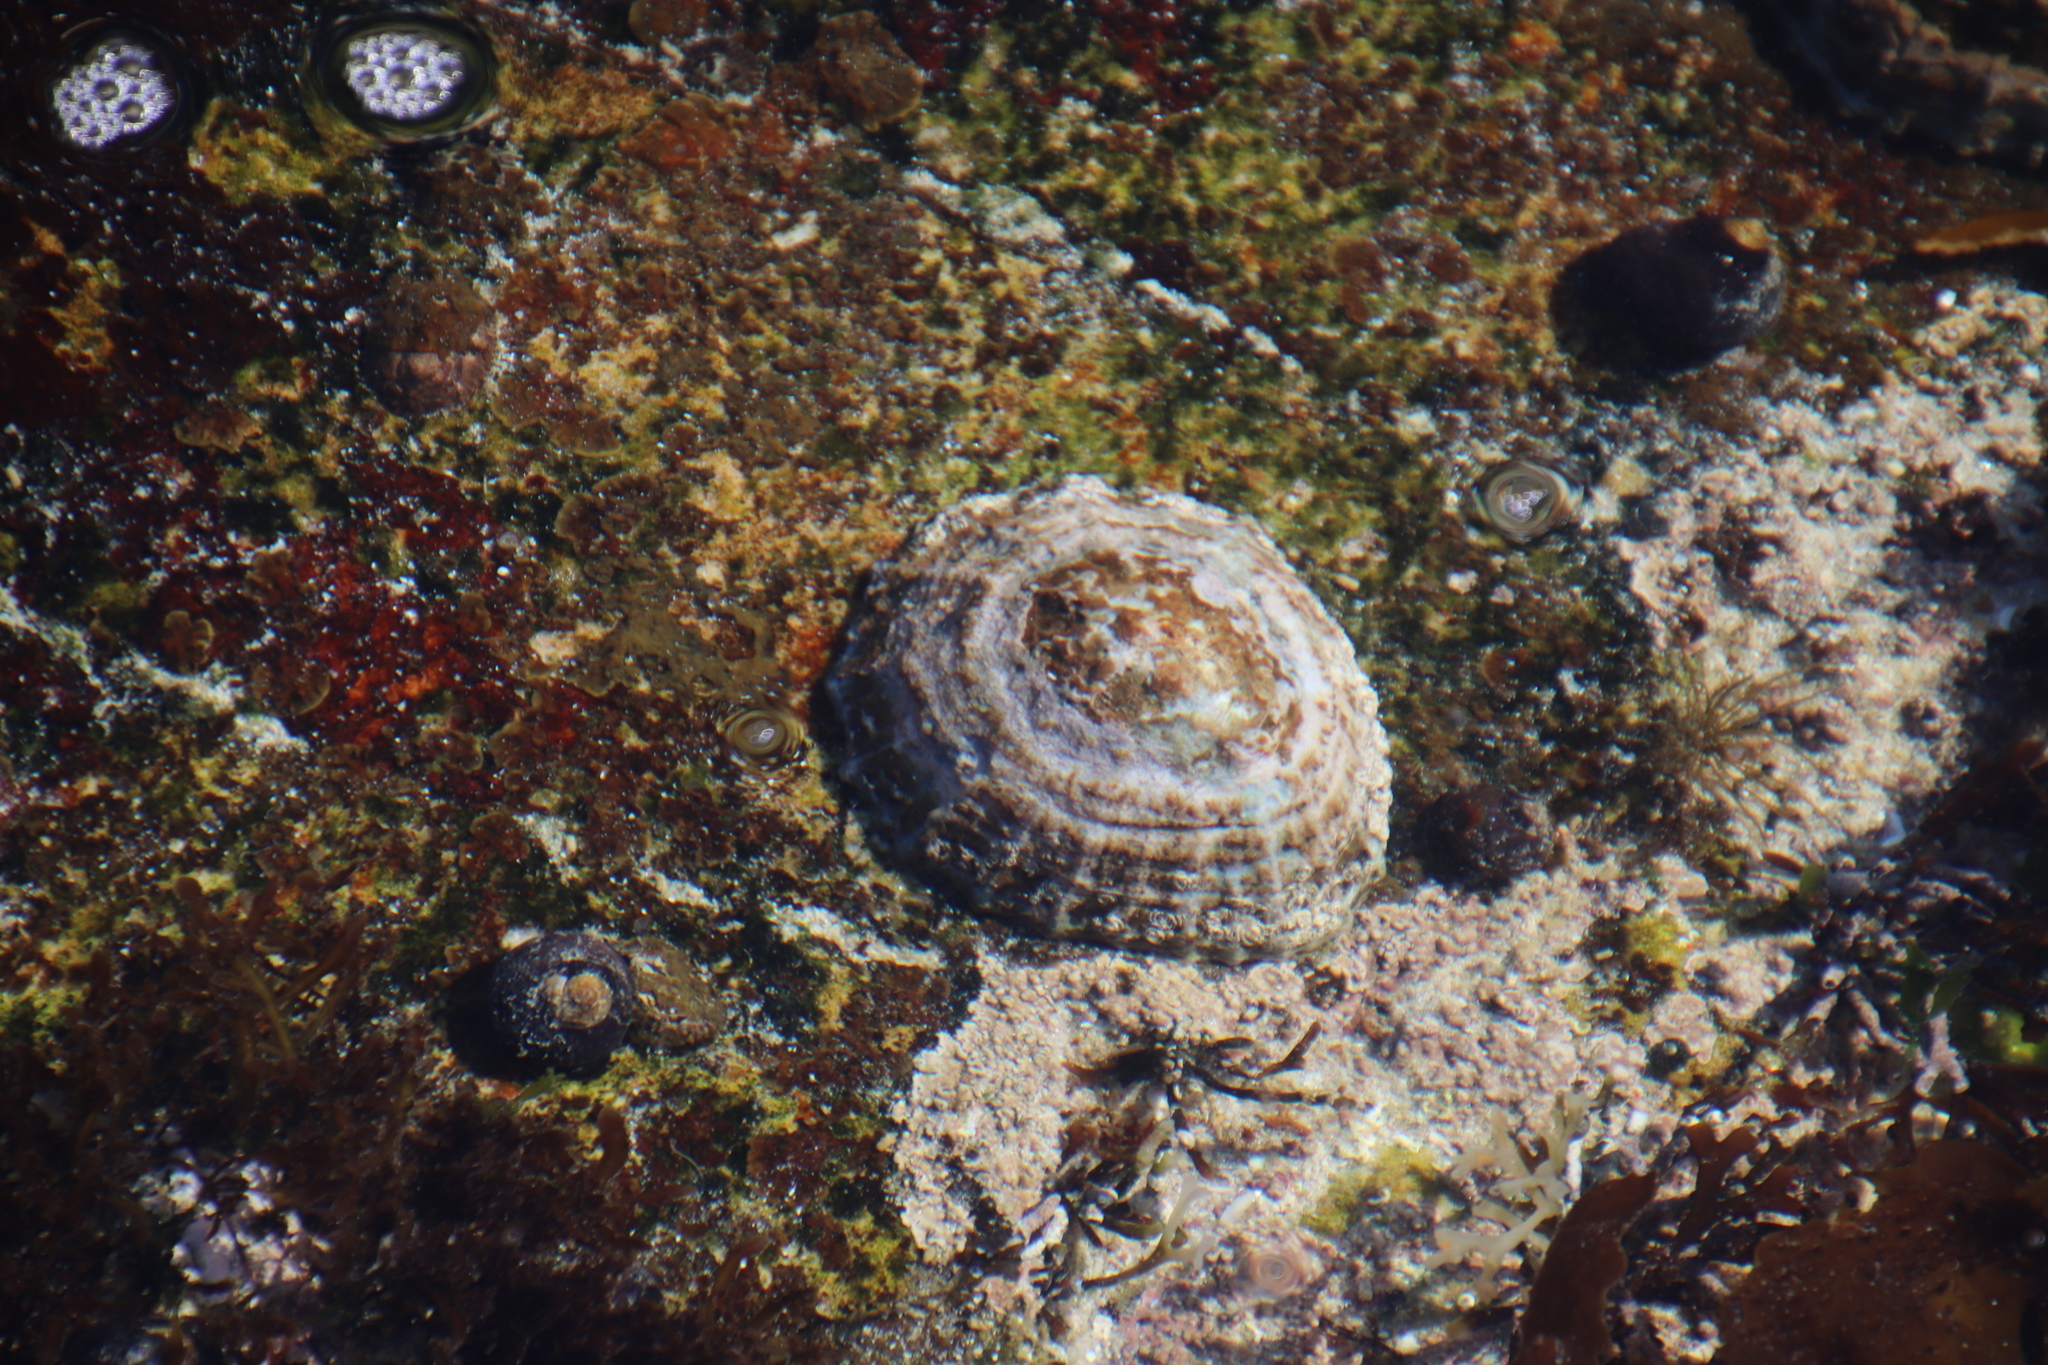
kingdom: Animalia
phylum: Mollusca
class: Gastropoda
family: Patellidae
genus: Scutellastra
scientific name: Scutellastra argenvillei
